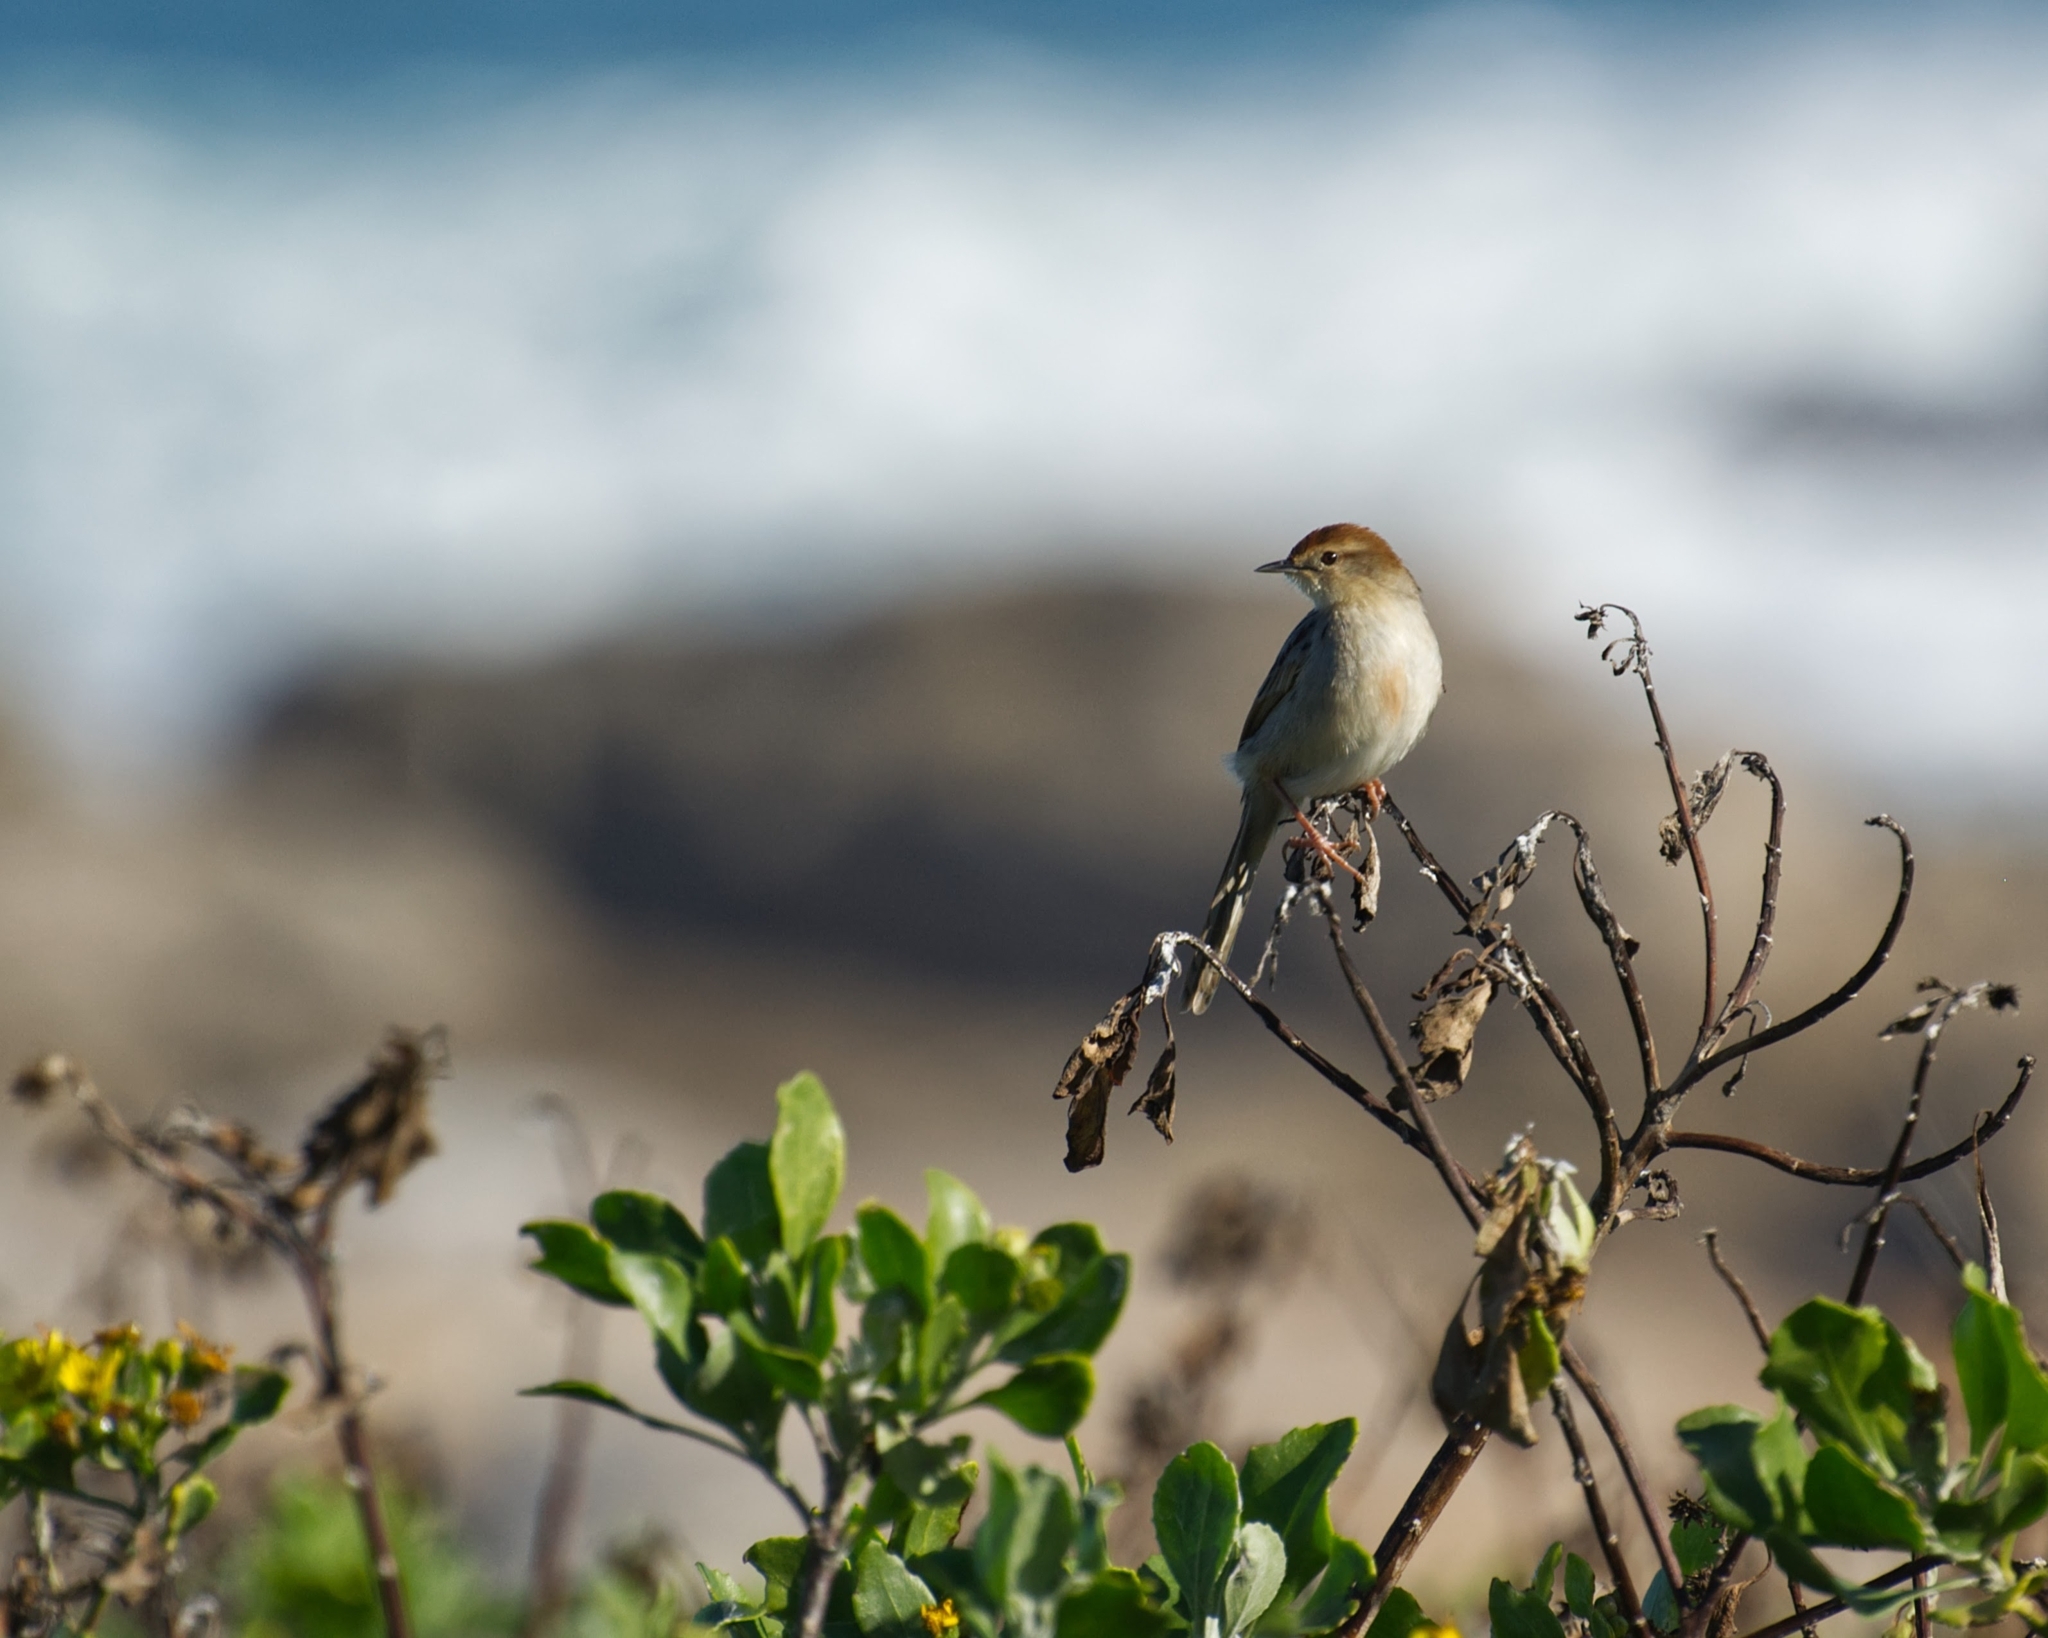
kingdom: Animalia
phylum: Chordata
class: Aves
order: Passeriformes
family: Cisticolidae
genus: Cisticola
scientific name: Cisticola tinniens
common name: Levaillant's cisticola
